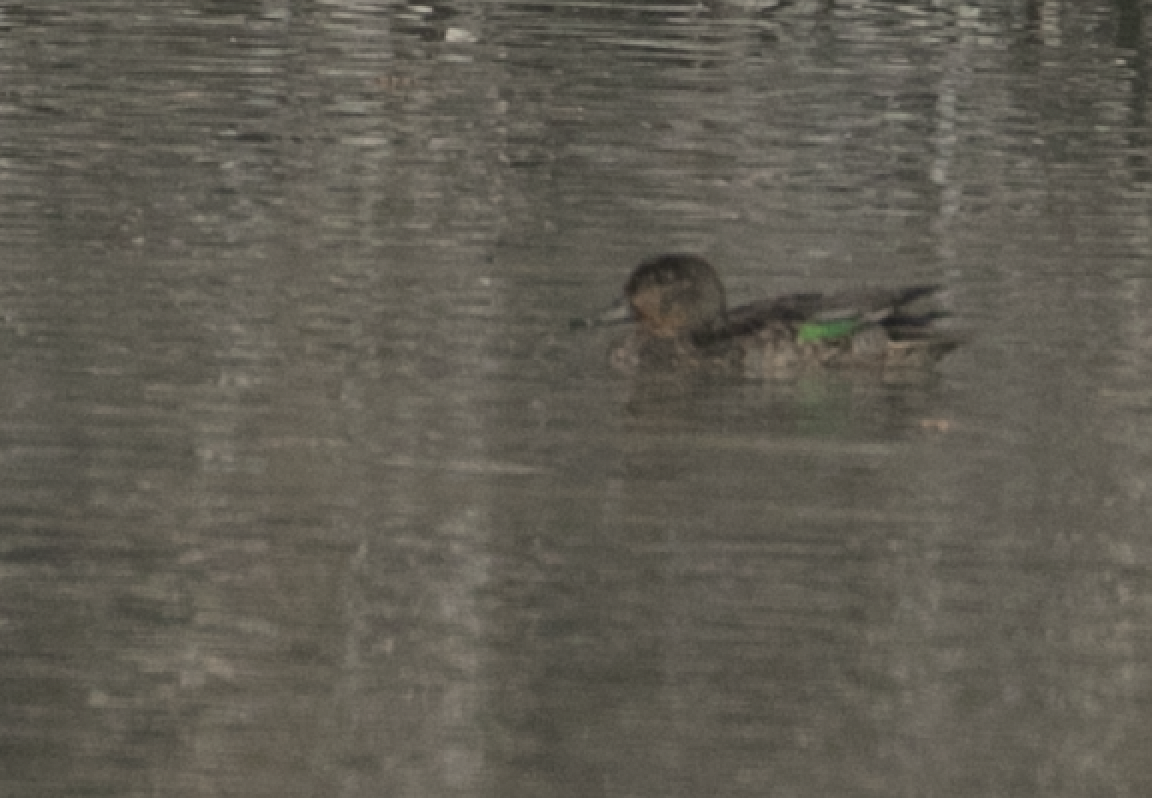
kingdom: Animalia
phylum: Chordata
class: Aves
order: Anseriformes
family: Anatidae
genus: Anas
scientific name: Anas crecca
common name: Eurasian teal
